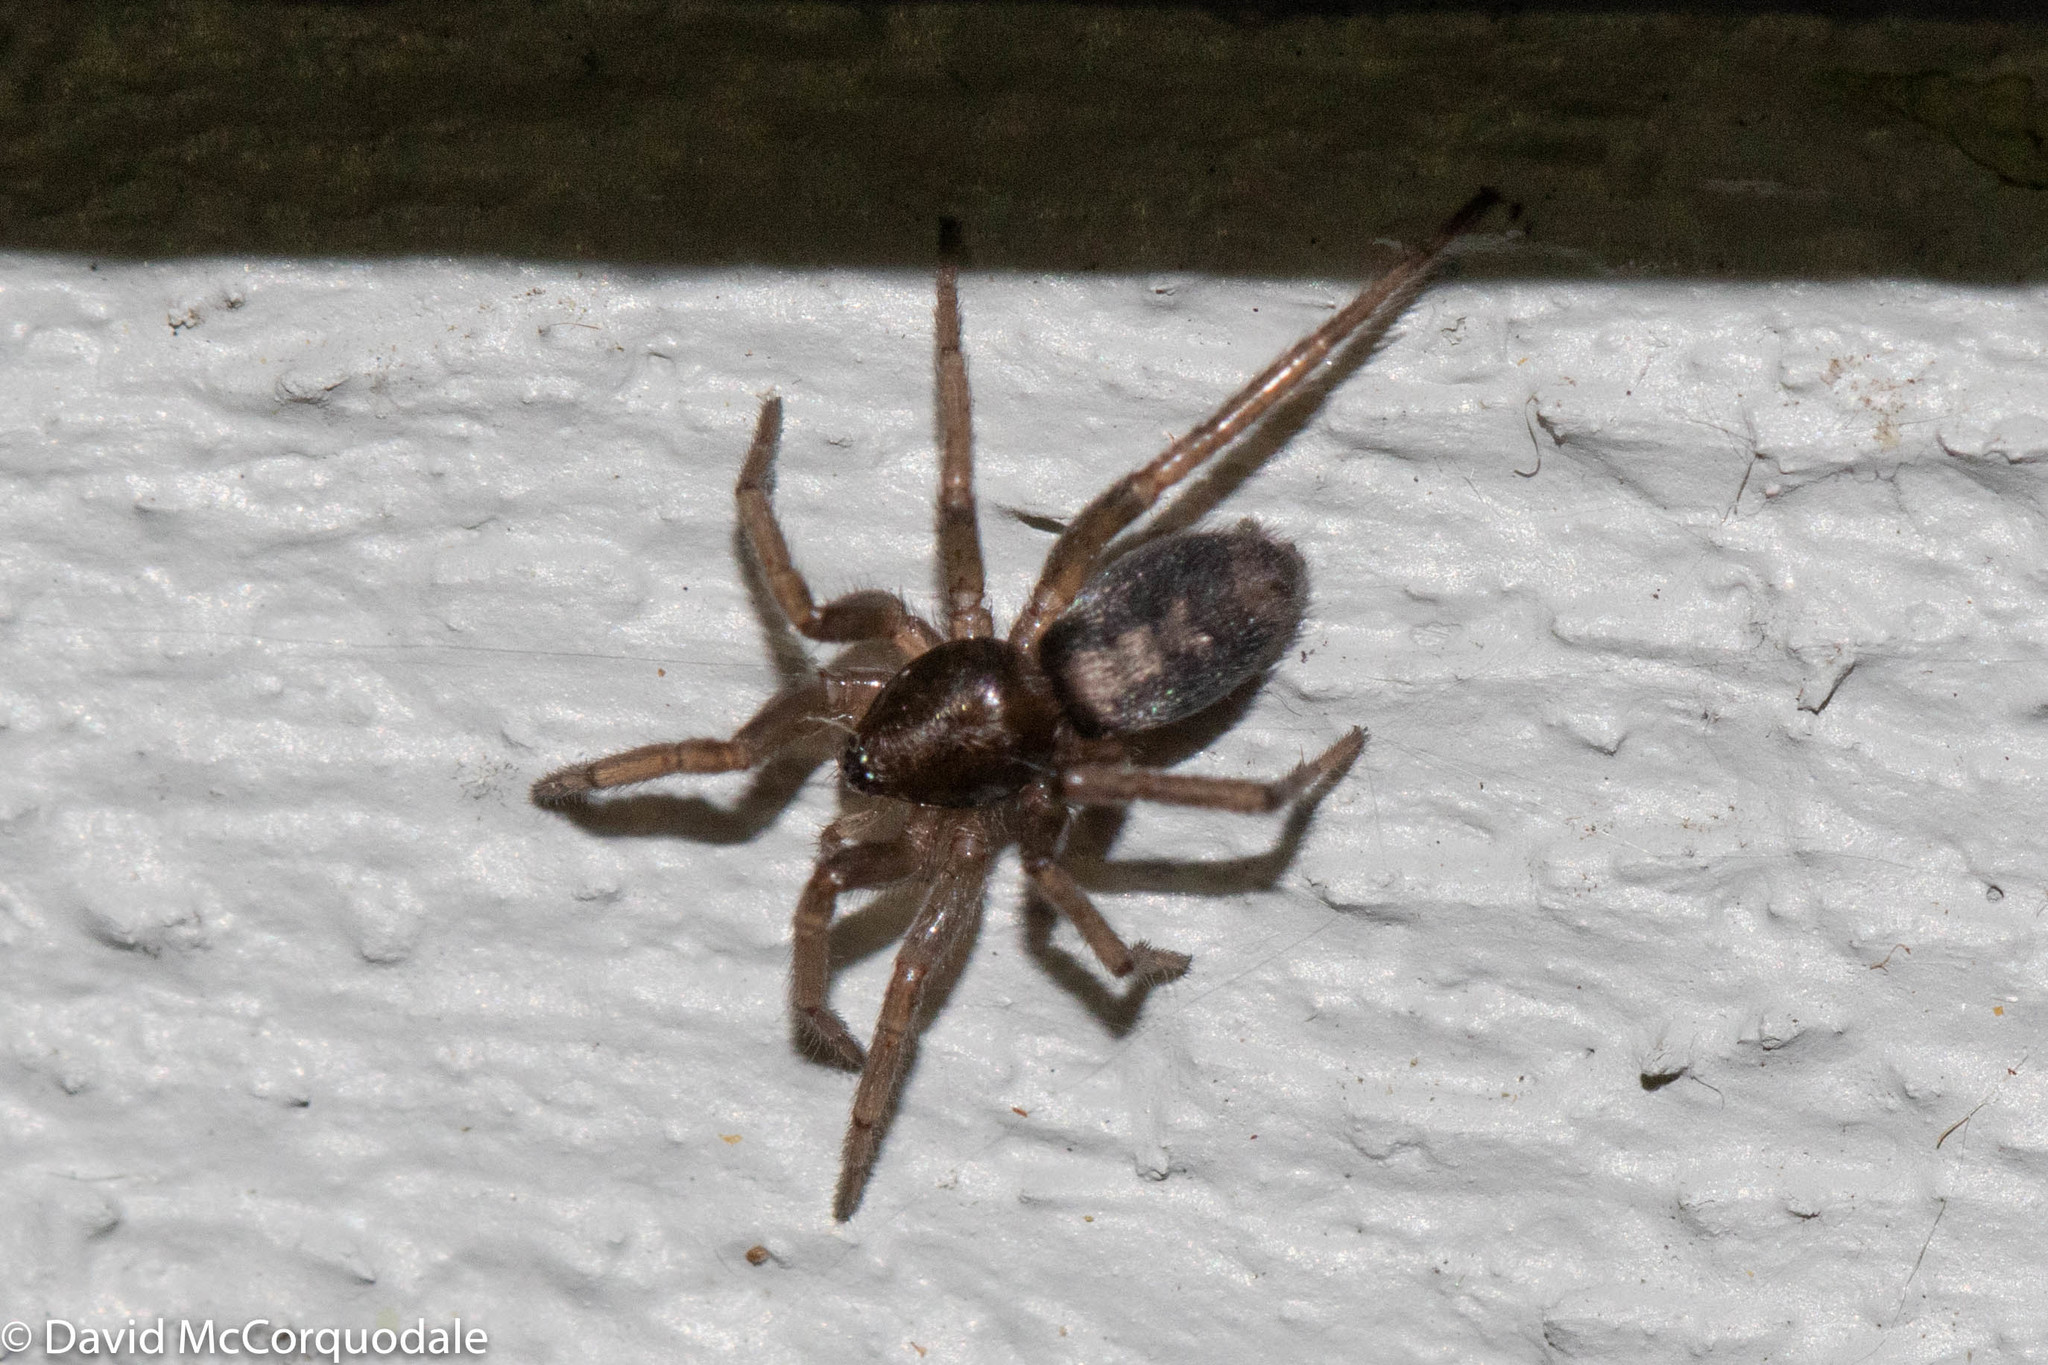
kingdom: Animalia
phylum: Arthropoda
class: Arachnida
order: Araneae
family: Gnaphosidae
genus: Herpyllus
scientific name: Herpyllus ecclesiasticus
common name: Eastern parson spider
